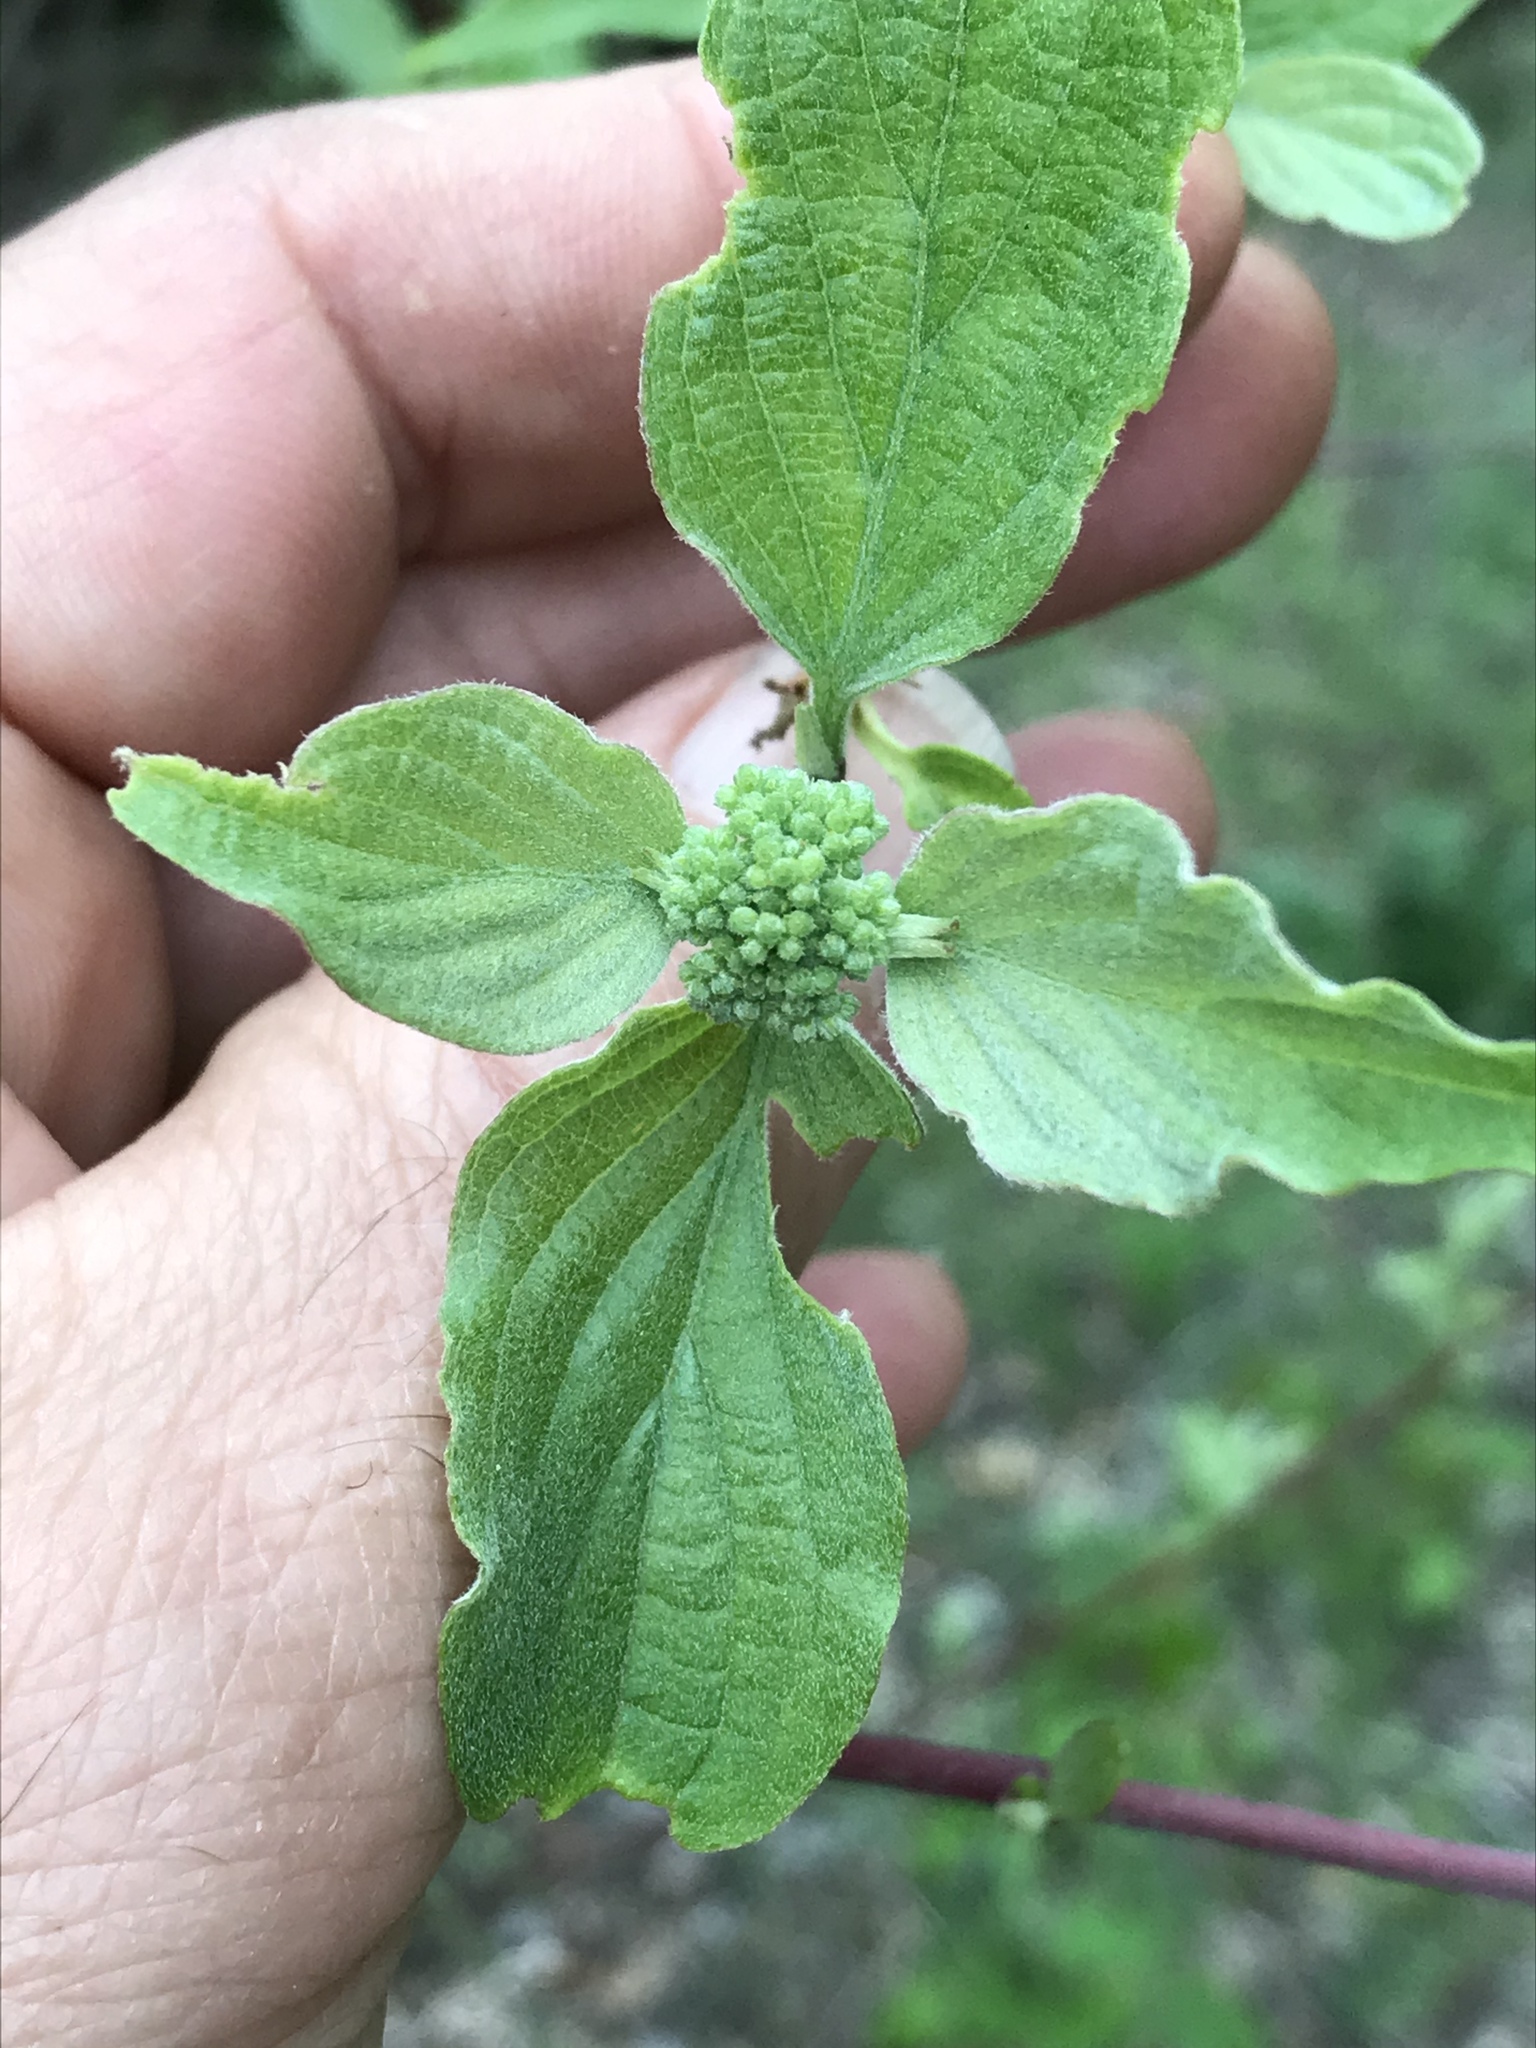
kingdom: Plantae
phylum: Tracheophyta
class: Magnoliopsida
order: Cornales
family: Cornaceae
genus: Cornus
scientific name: Cornus drummondii
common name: Rough-leaf dogwood
